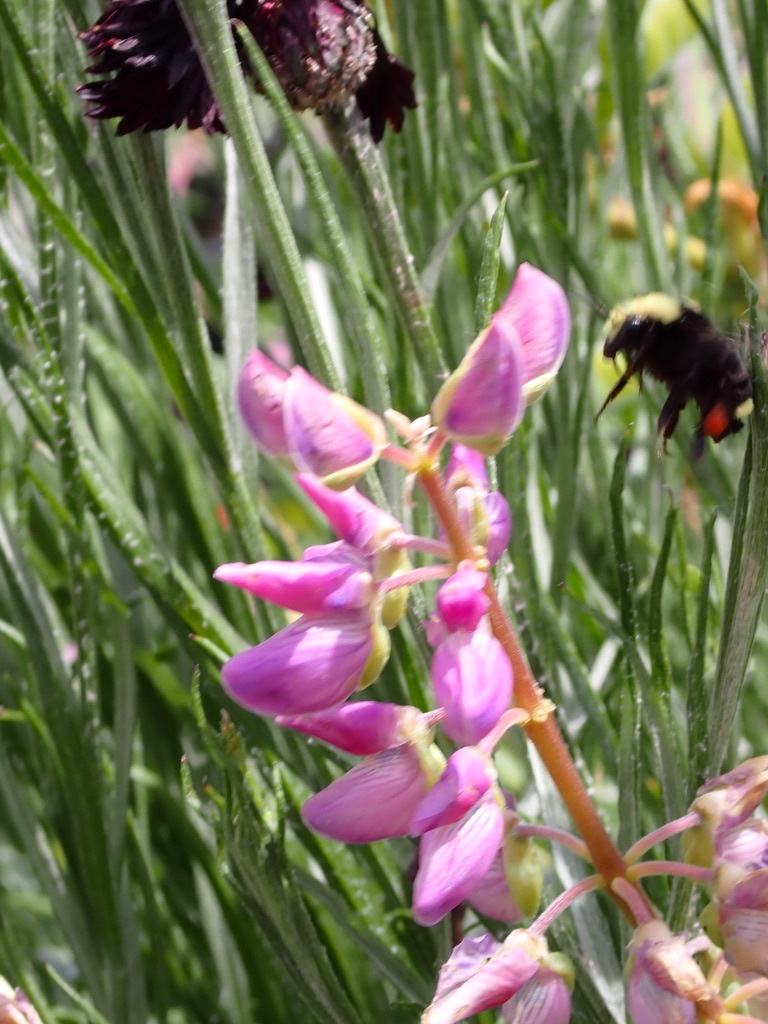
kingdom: Animalia
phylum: Arthropoda
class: Insecta
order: Hymenoptera
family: Apidae
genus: Pyrobombus
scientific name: Pyrobombus
